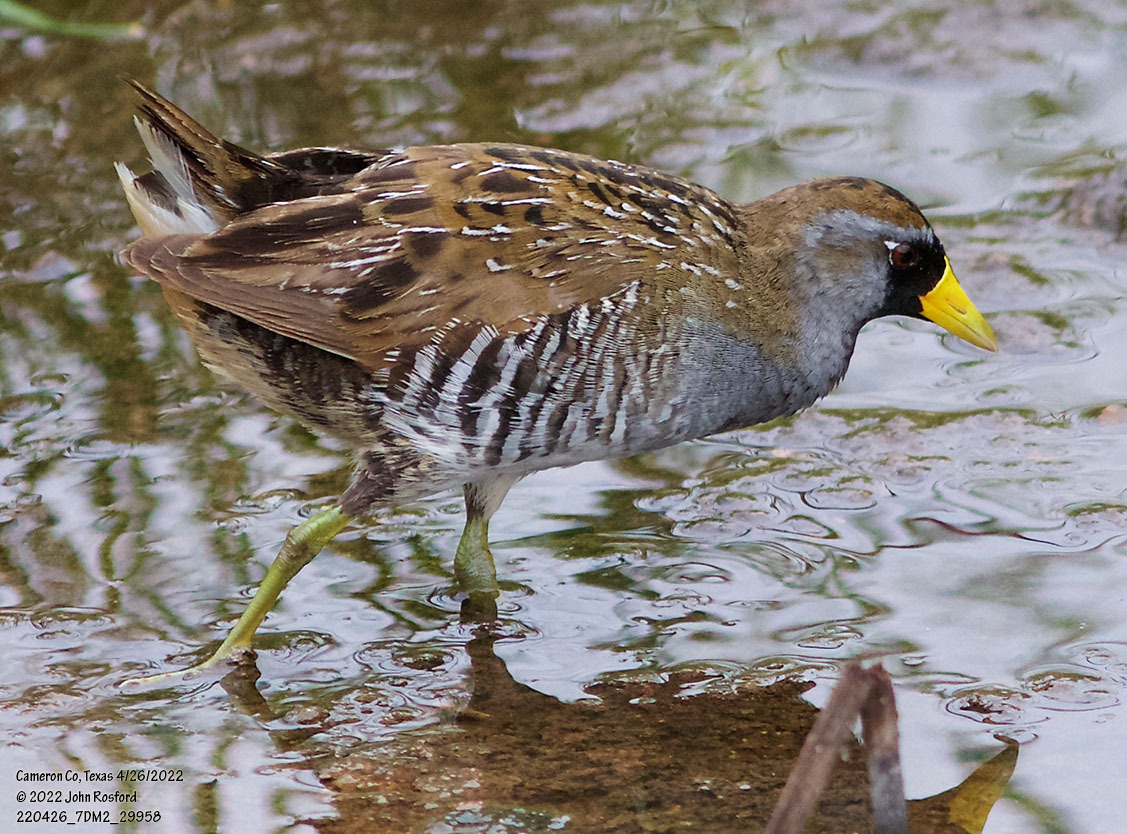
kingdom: Animalia
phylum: Chordata
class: Aves
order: Gruiformes
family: Rallidae
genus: Porzana
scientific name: Porzana carolina
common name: Sora
